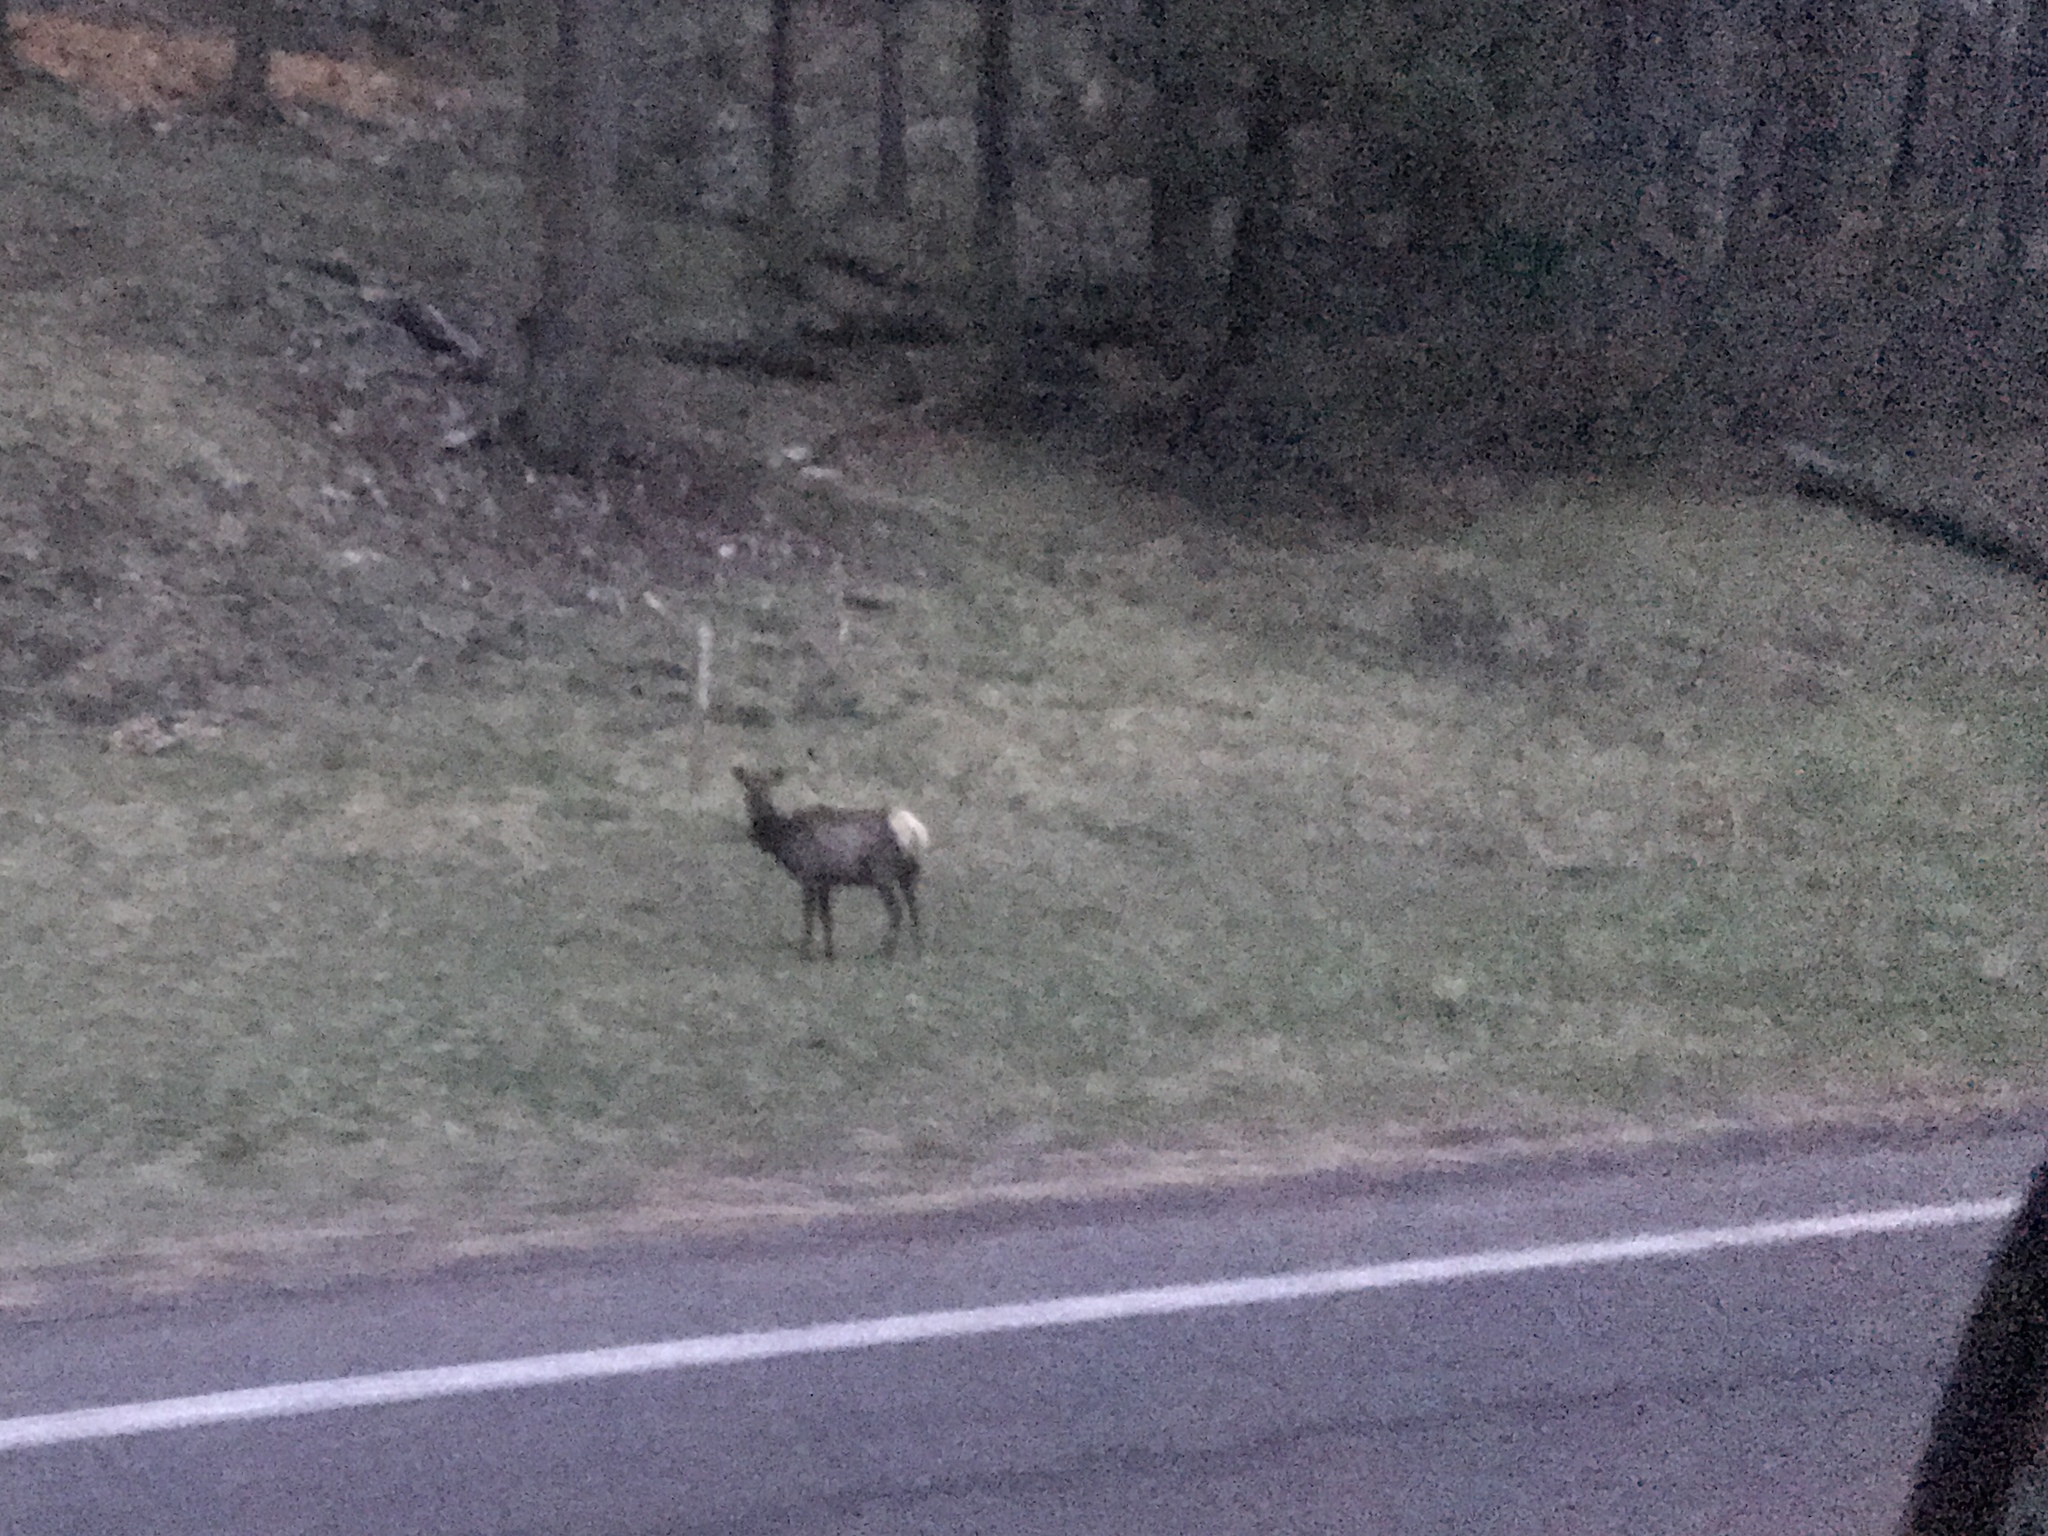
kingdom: Animalia
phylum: Chordata
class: Mammalia
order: Artiodactyla
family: Cervidae
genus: Cervus
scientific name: Cervus elaphus
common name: Red deer
